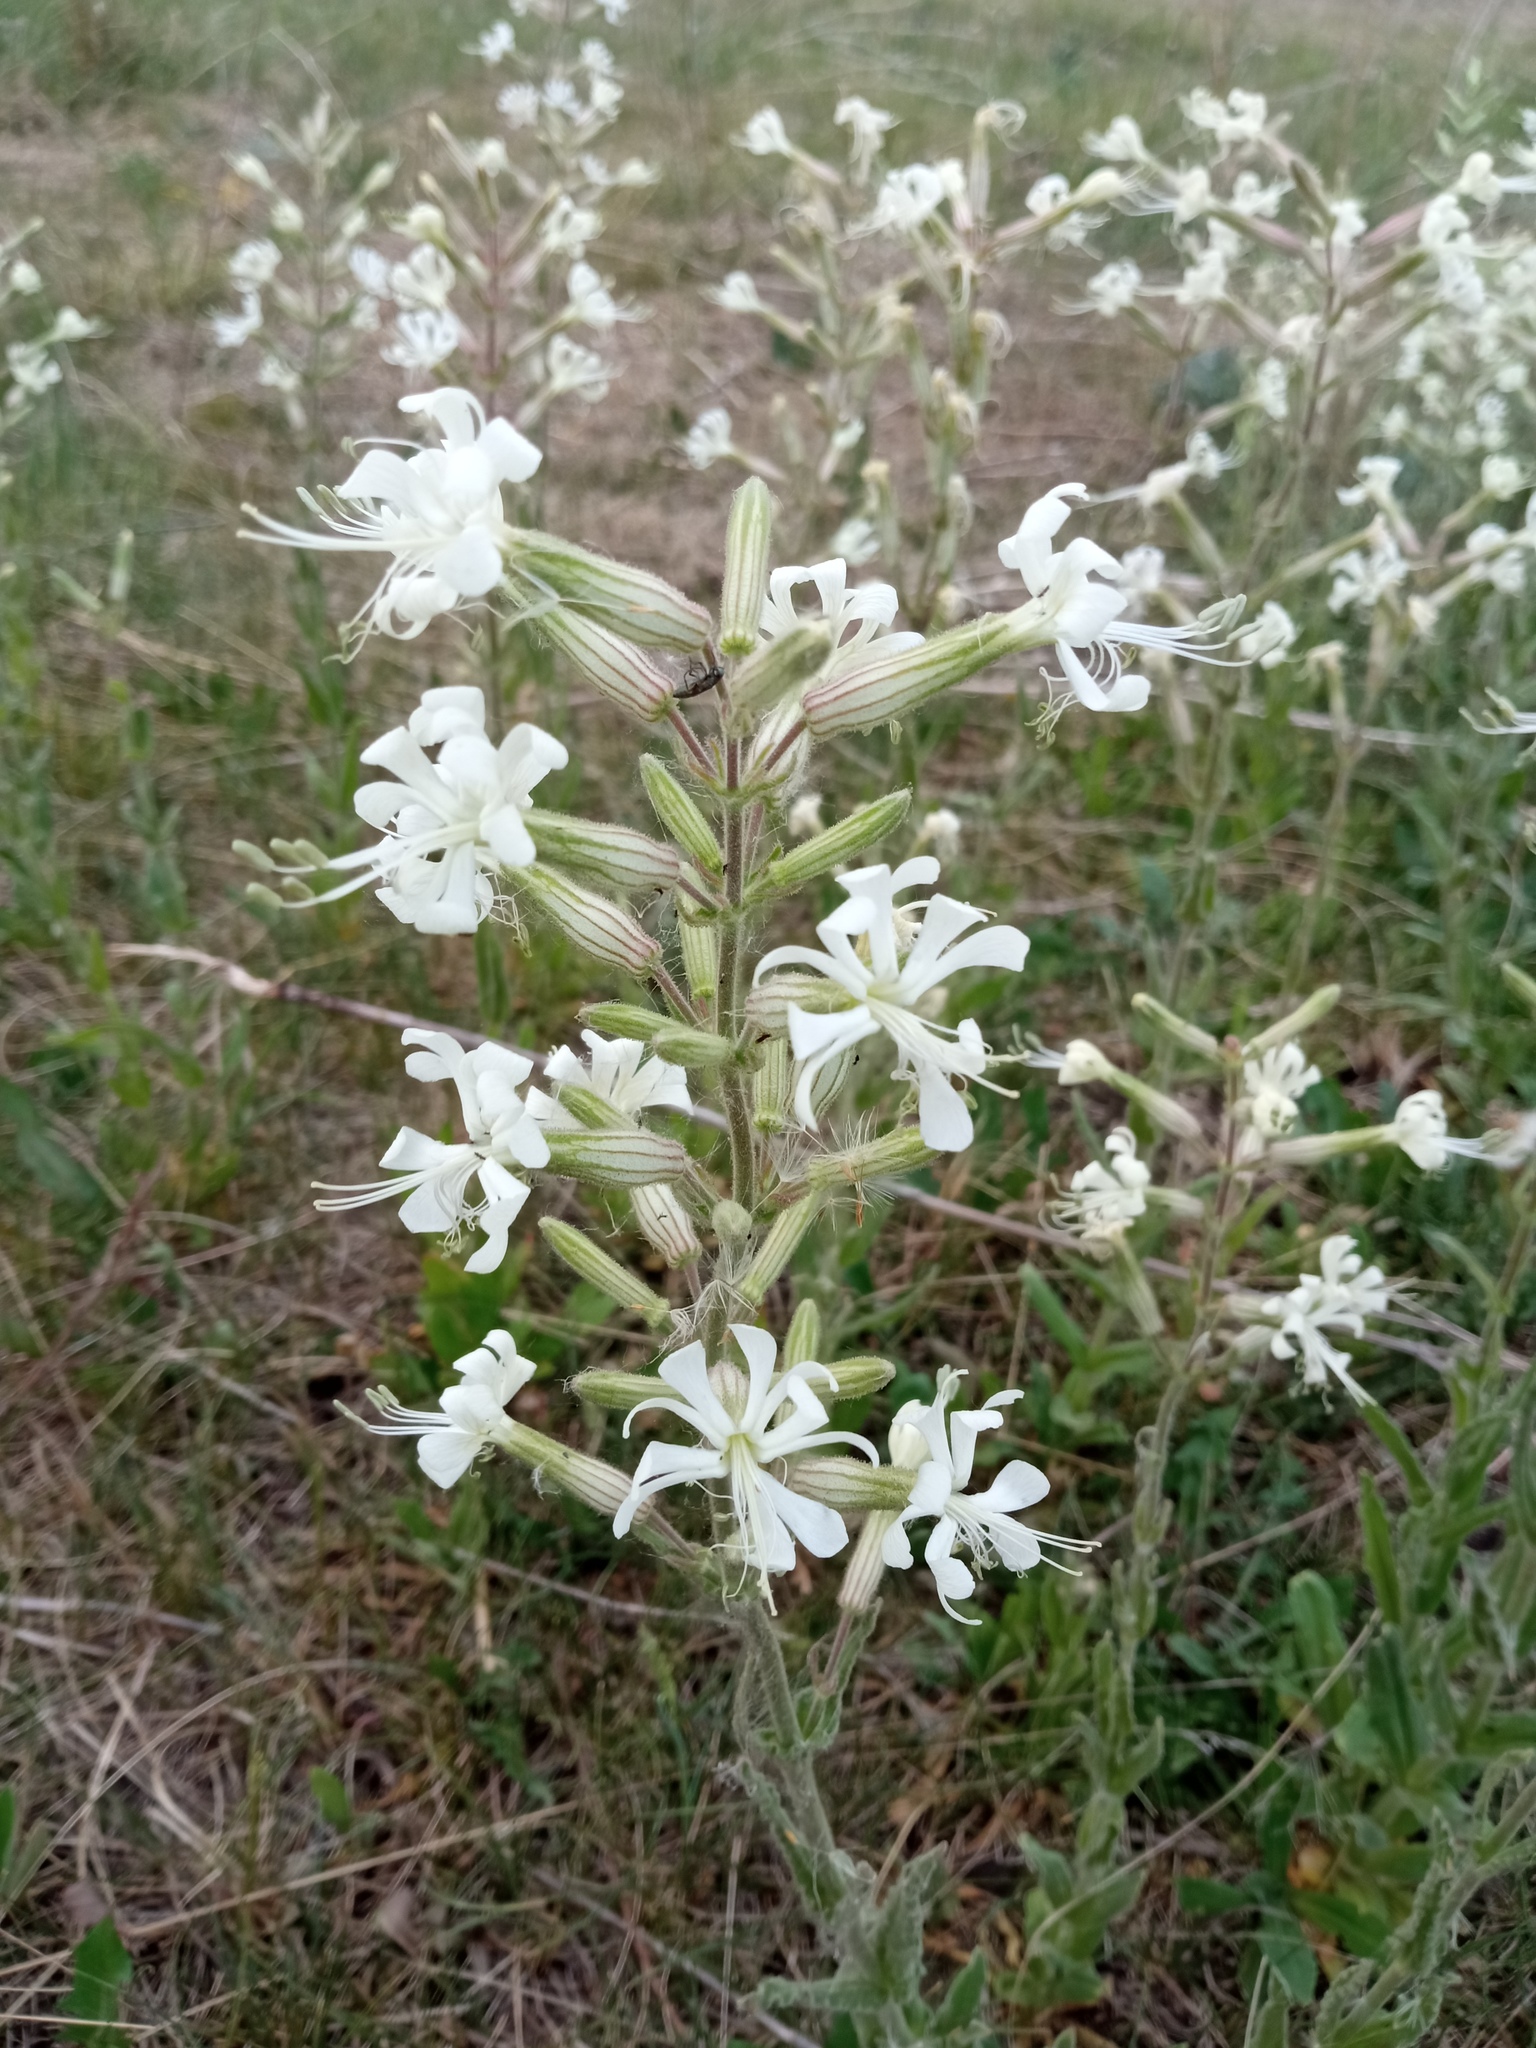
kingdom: Plantae
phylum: Tracheophyta
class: Magnoliopsida
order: Caryophyllales
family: Caryophyllaceae
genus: Silene
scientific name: Silene viscosa
